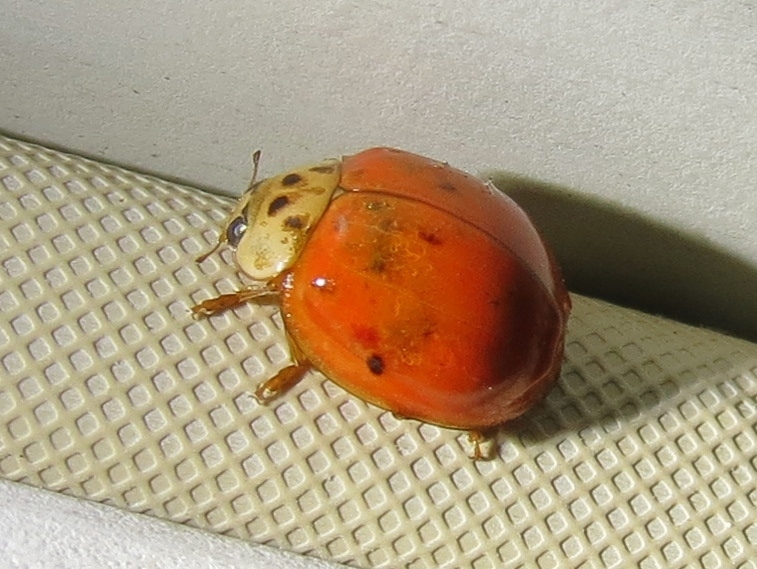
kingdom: Animalia
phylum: Arthropoda
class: Insecta
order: Coleoptera
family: Coccinellidae
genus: Harmonia
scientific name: Harmonia axyridis
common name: Harlequin ladybird
